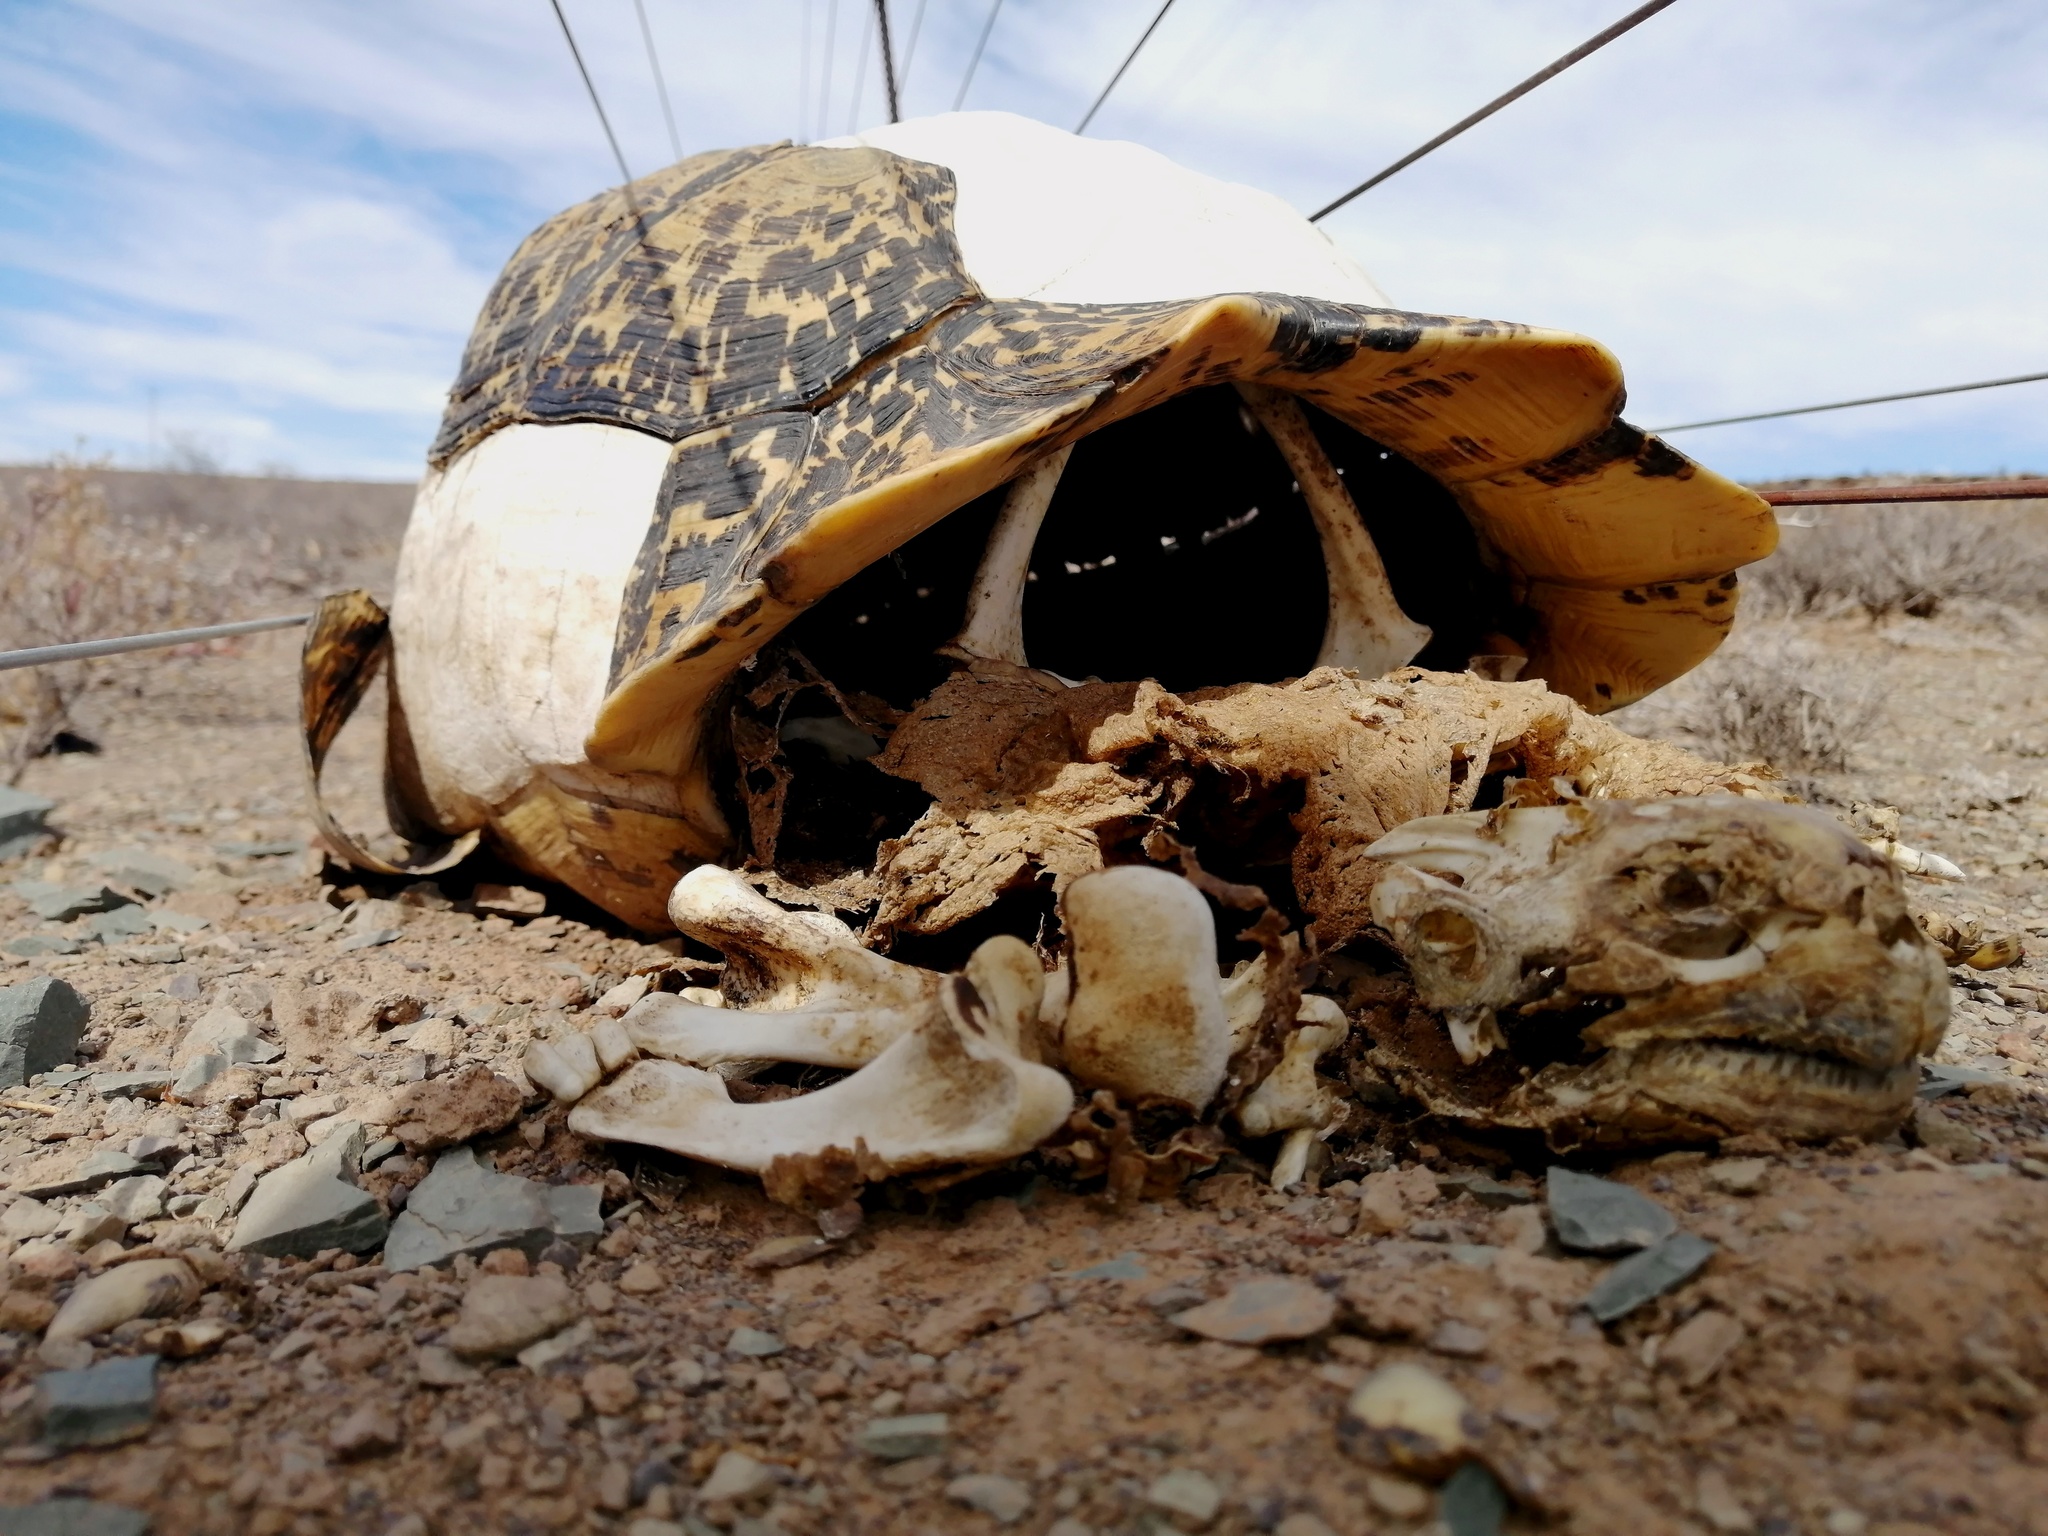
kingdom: Animalia
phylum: Chordata
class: Testudines
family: Testudinidae
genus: Stigmochelys
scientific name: Stigmochelys pardalis
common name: Leopard tortoise
